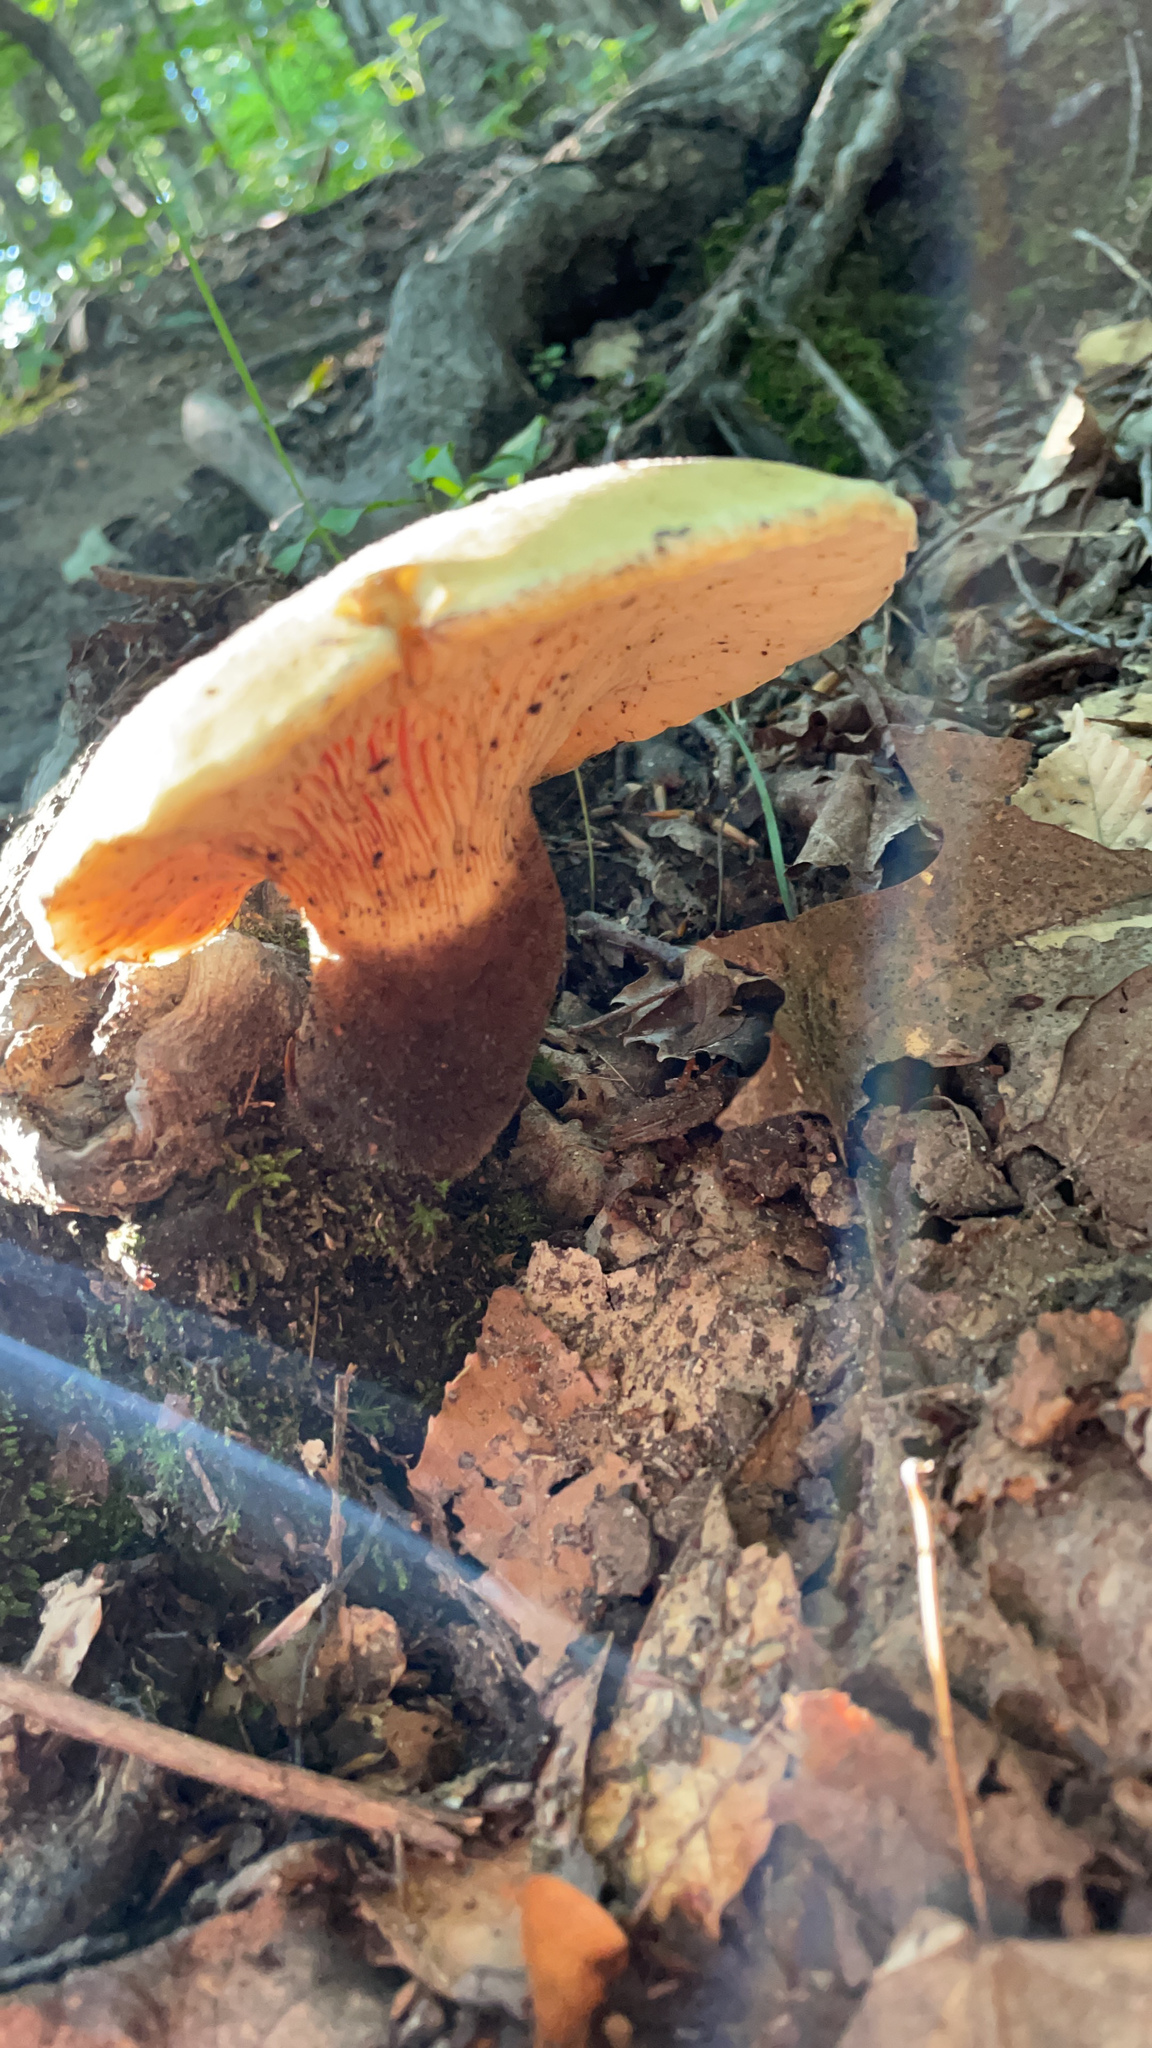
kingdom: Fungi
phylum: Basidiomycota
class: Agaricomycetes
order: Boletales
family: Tapinellaceae
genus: Tapinella
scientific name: Tapinella atrotomentosa
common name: Velvet rollrim
